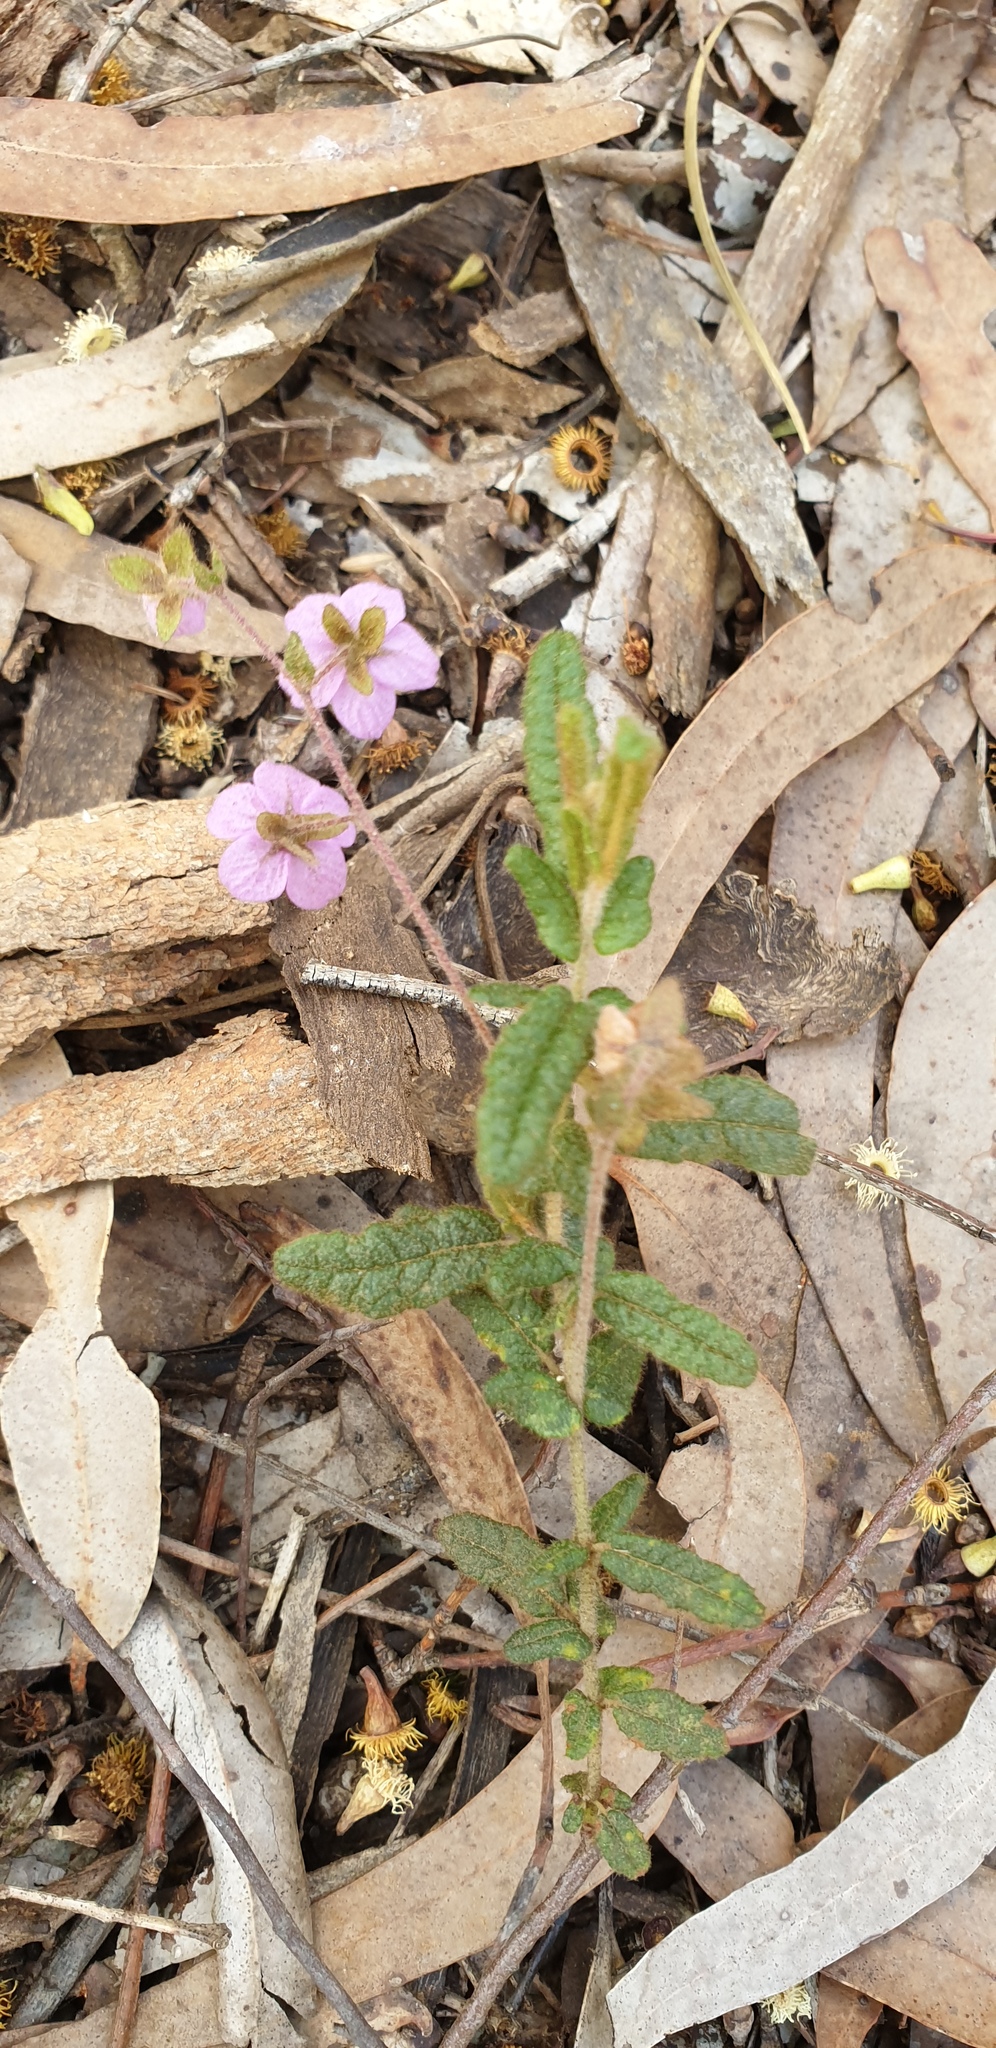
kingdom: Plantae
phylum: Tracheophyta
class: Magnoliopsida
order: Malvales
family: Malvaceae
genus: Thomasia
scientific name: Thomasia petalocalyx
